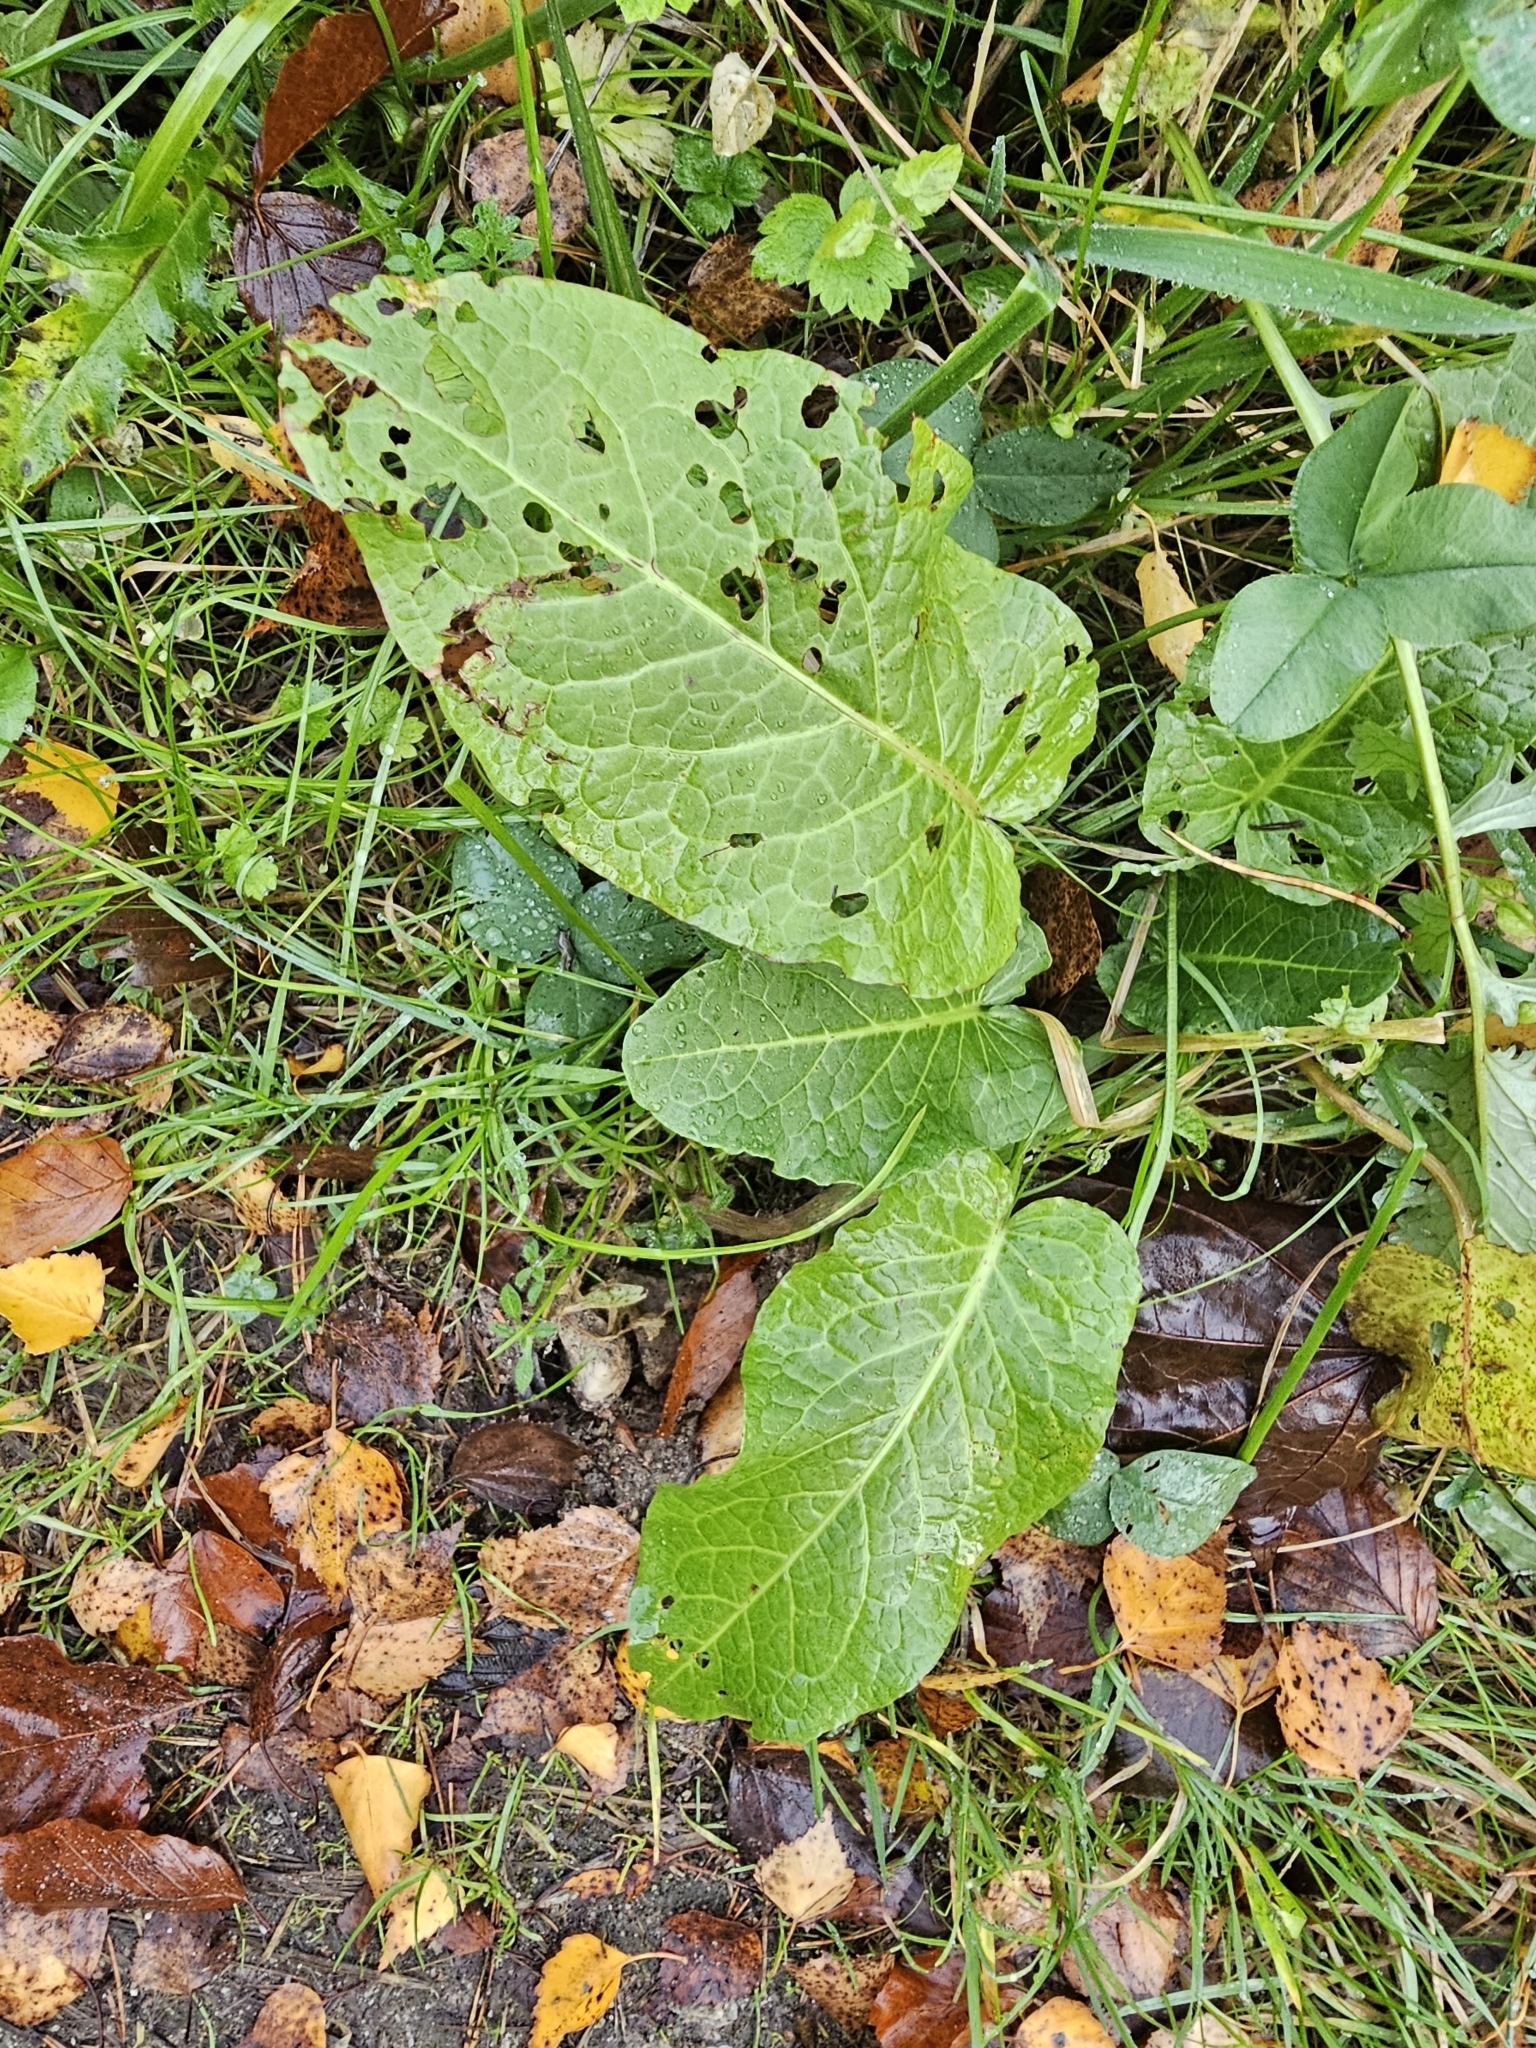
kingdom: Plantae
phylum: Tracheophyta
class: Magnoliopsida
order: Caryophyllales
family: Polygonaceae
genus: Rumex
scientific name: Rumex obtusifolius
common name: Bitter dock
